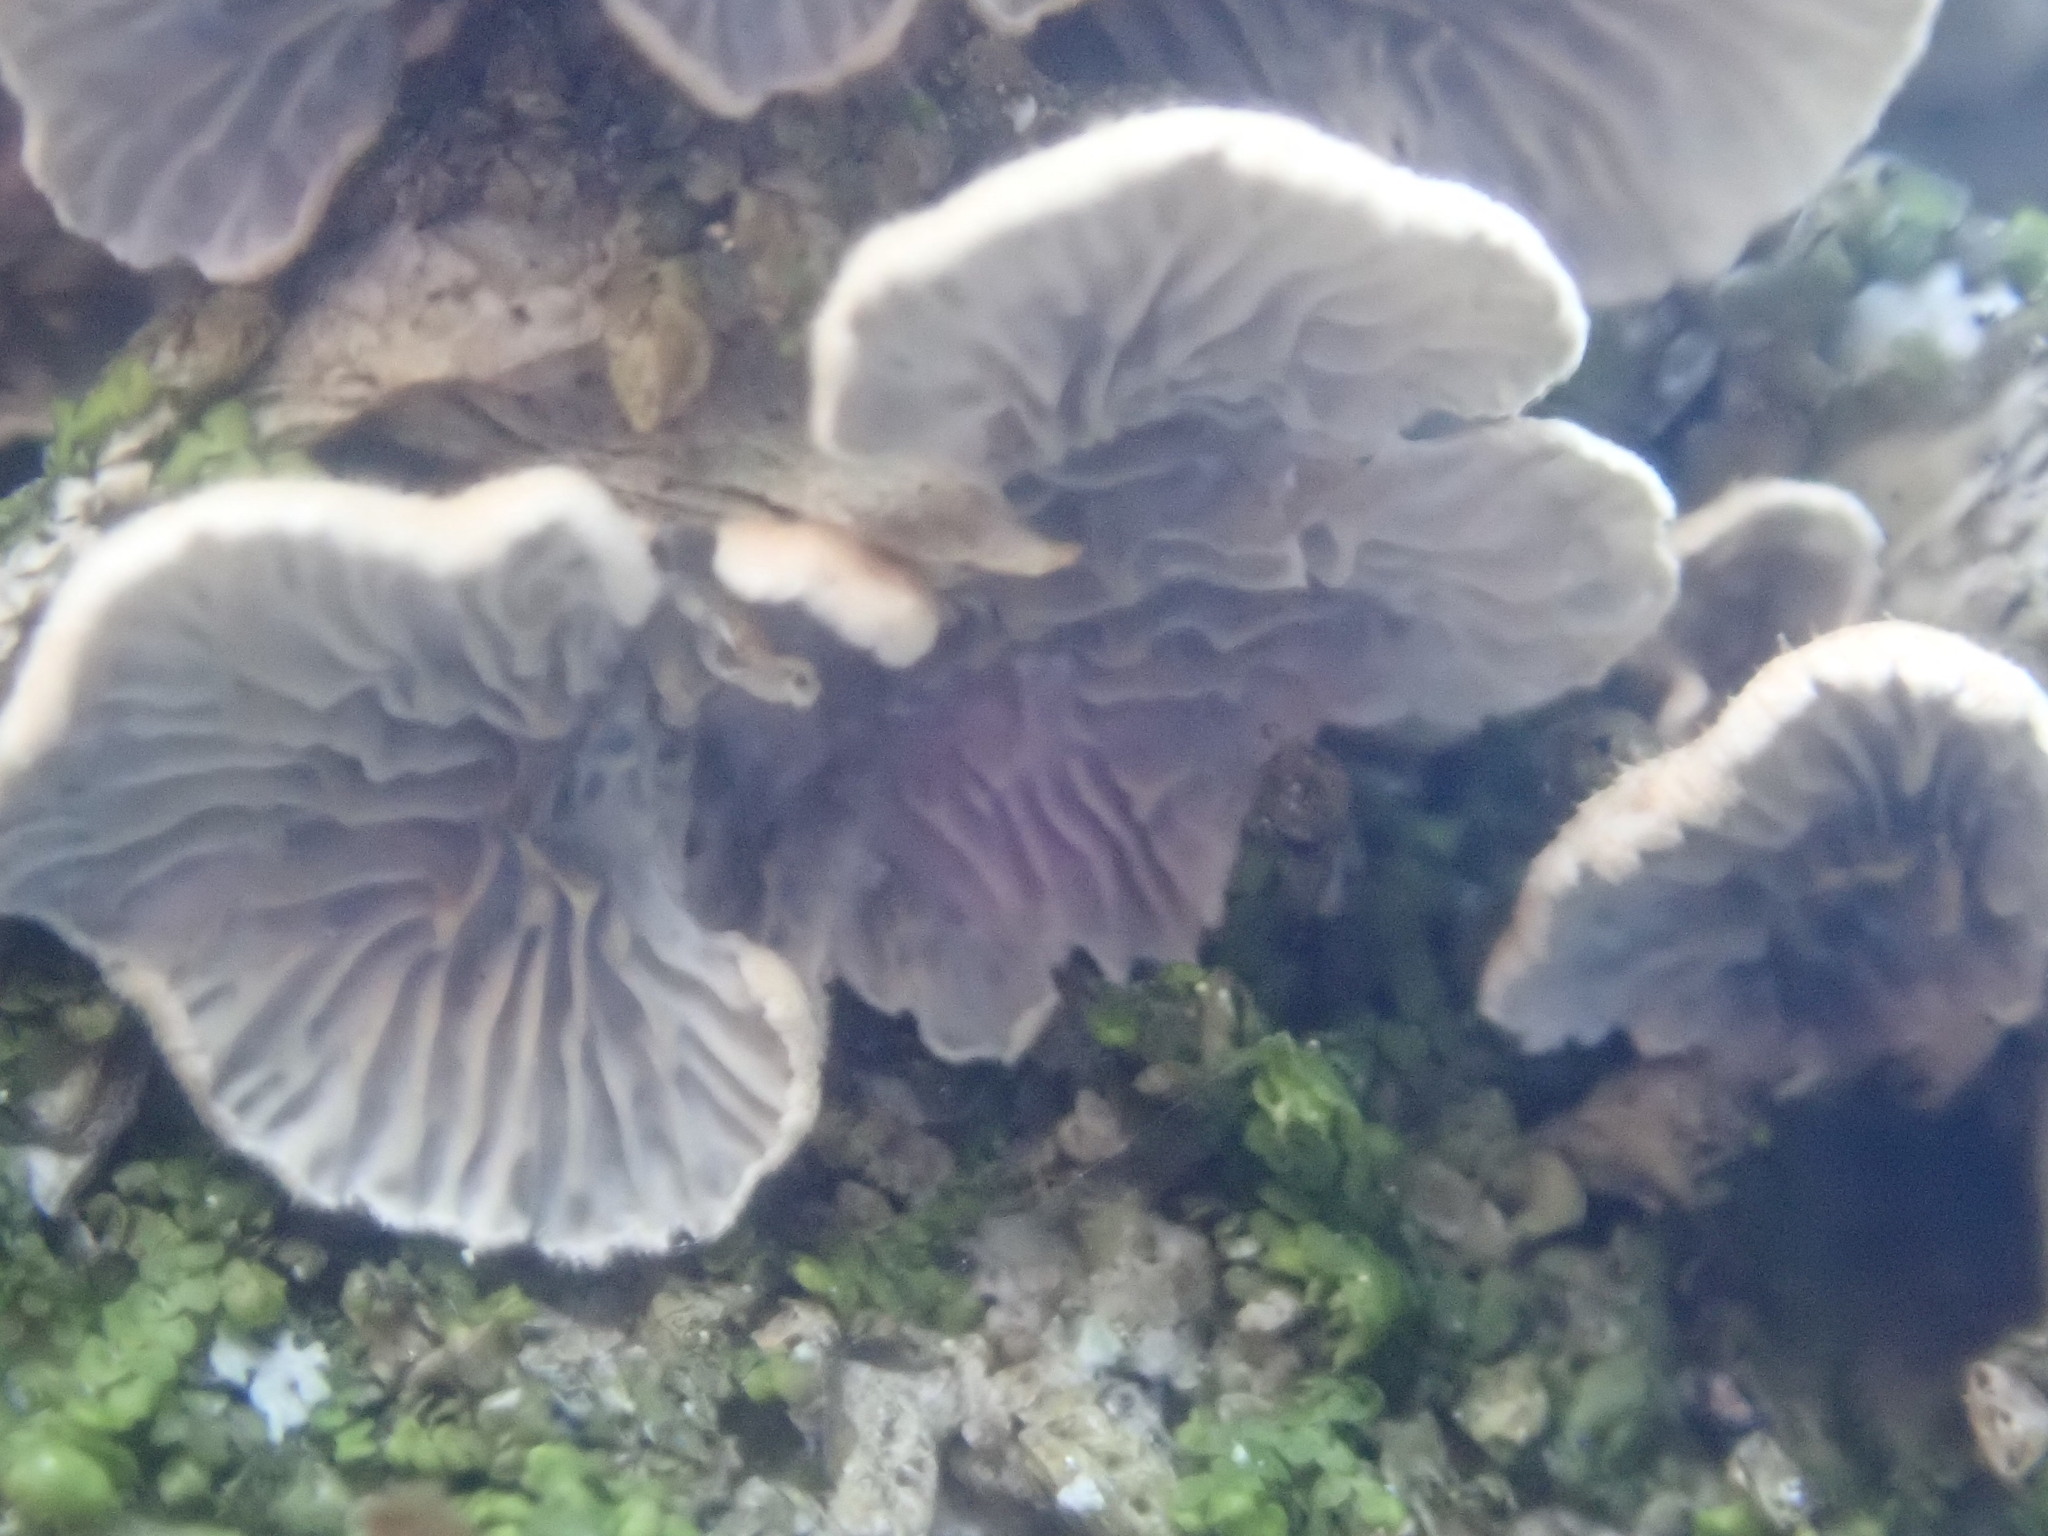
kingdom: Fungi
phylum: Basidiomycota
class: Agaricomycetes
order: Amylocorticiales
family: Amylocorticiaceae
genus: Plicaturopsis
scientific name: Plicaturopsis crispa
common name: Crimped gill
